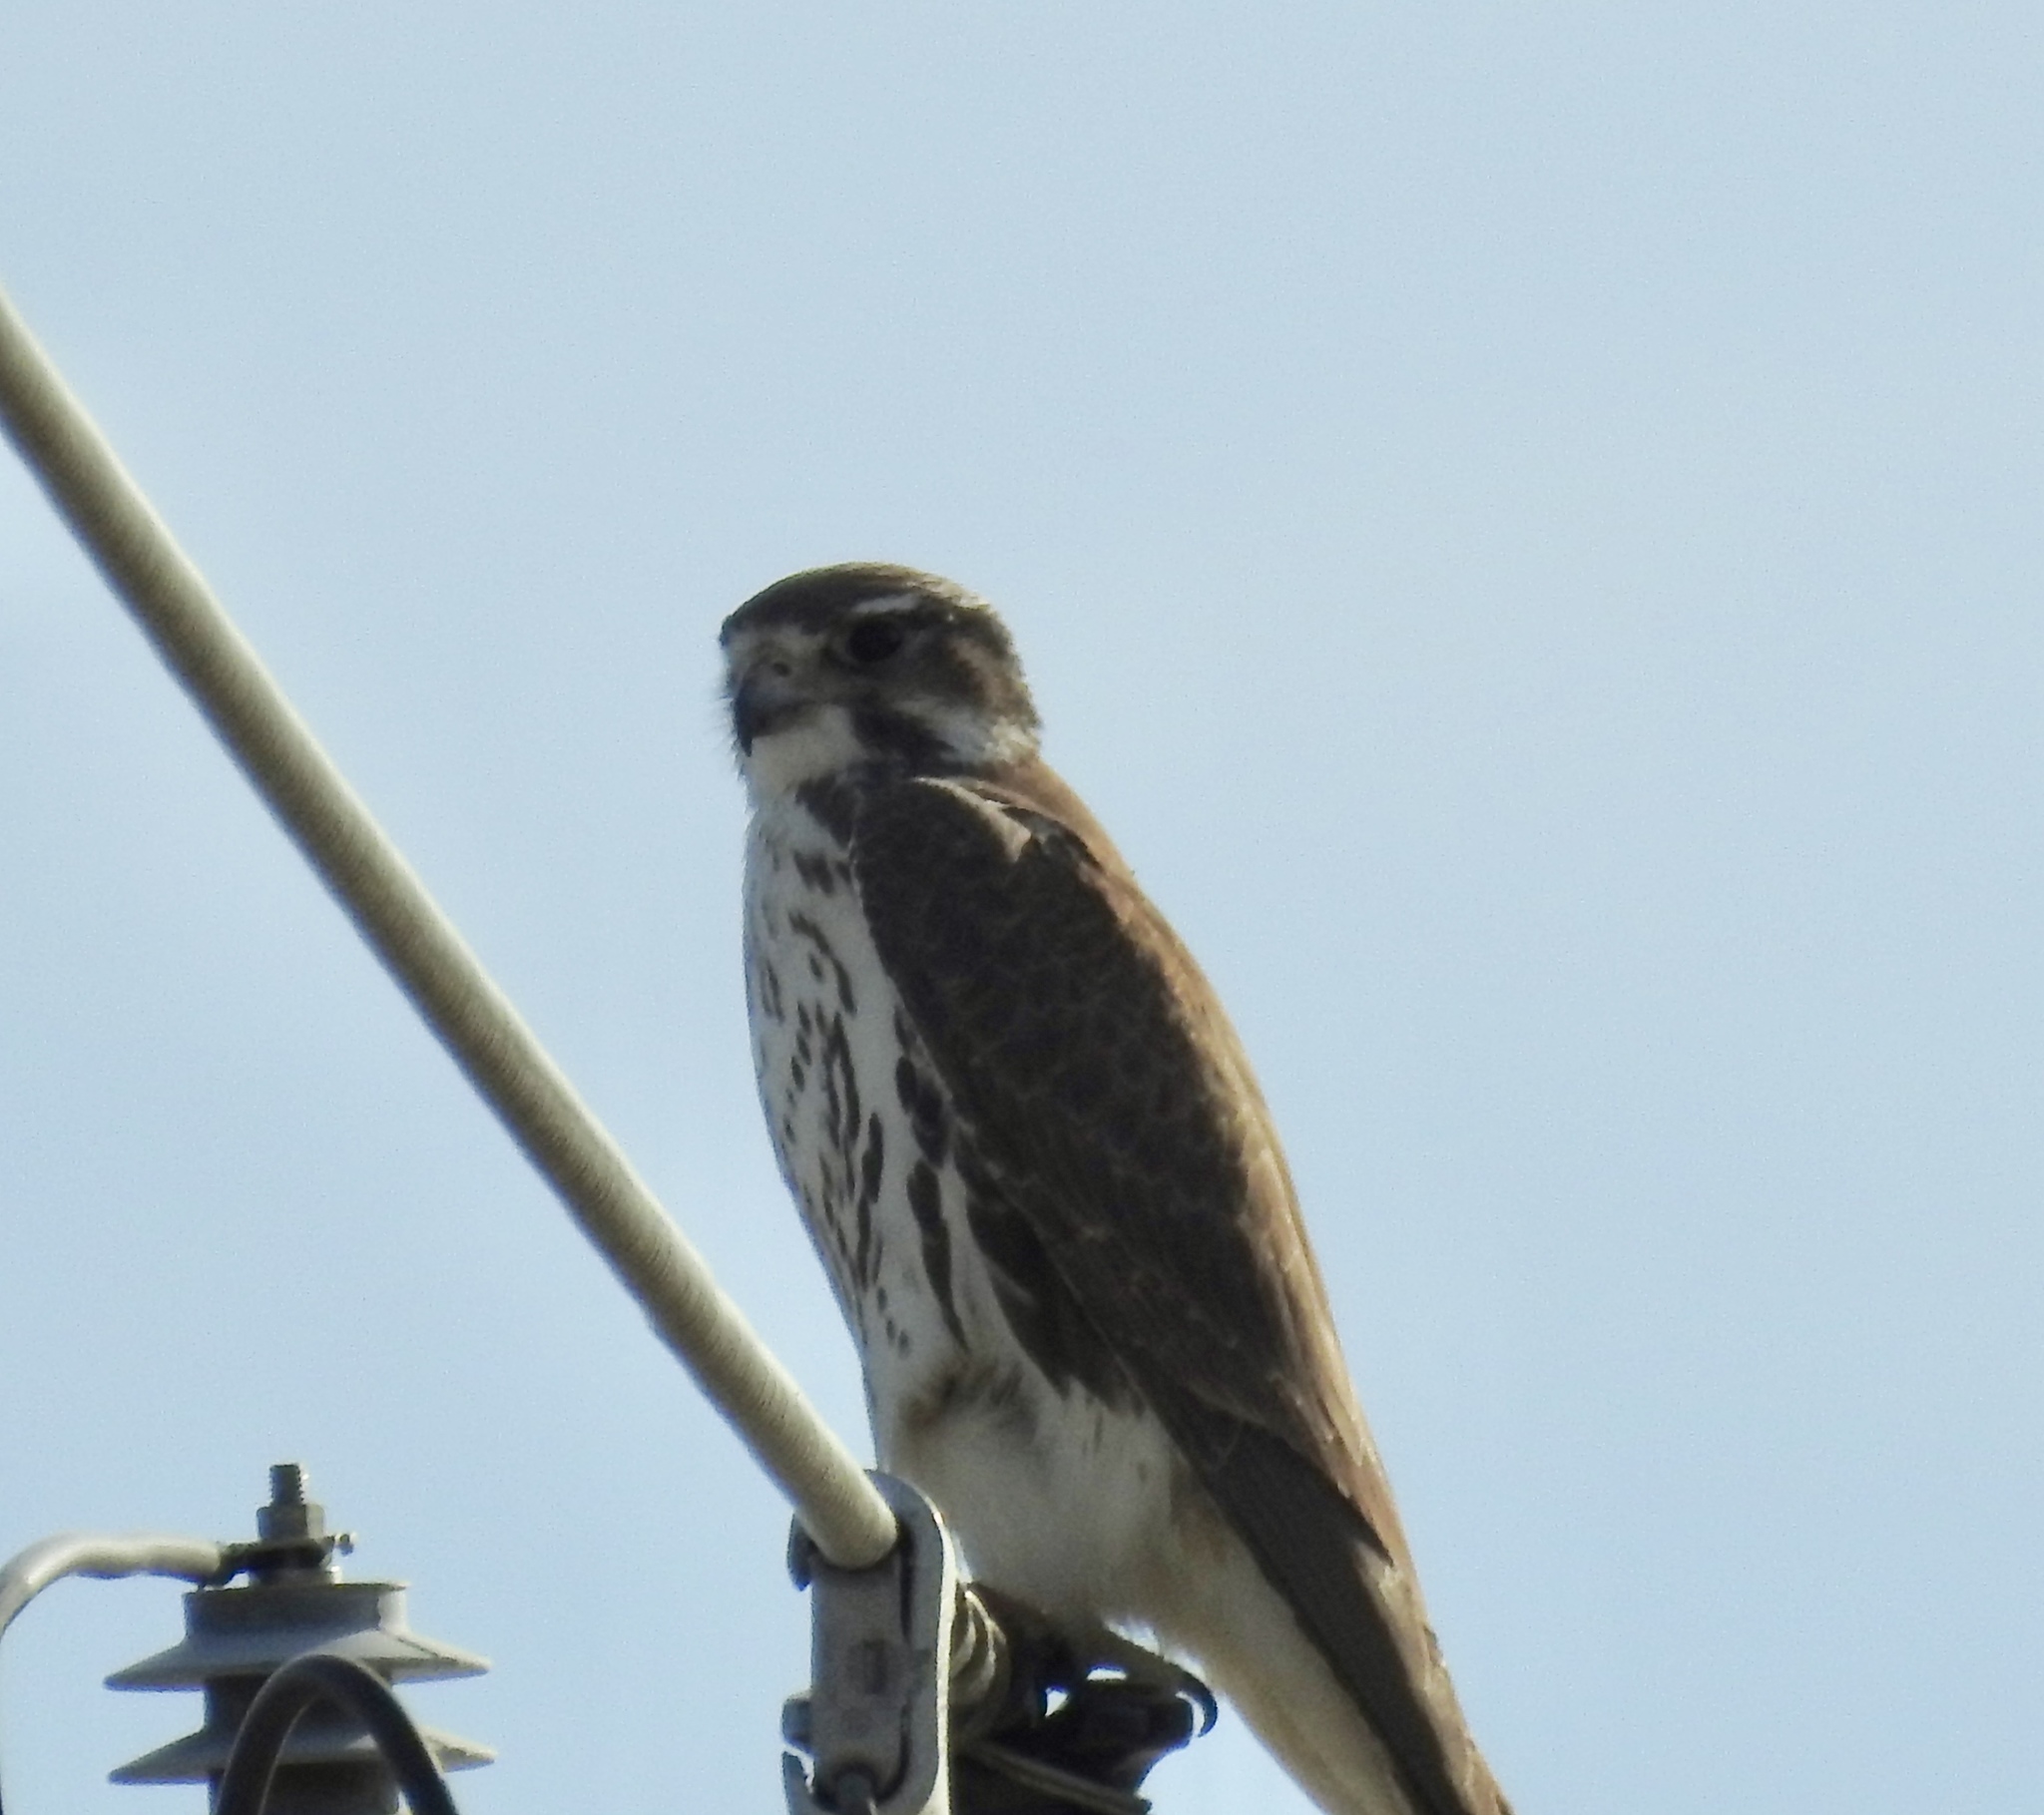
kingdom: Animalia
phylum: Chordata
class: Aves
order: Falconiformes
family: Falconidae
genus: Falco
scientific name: Falco mexicanus
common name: Prairie falcon
